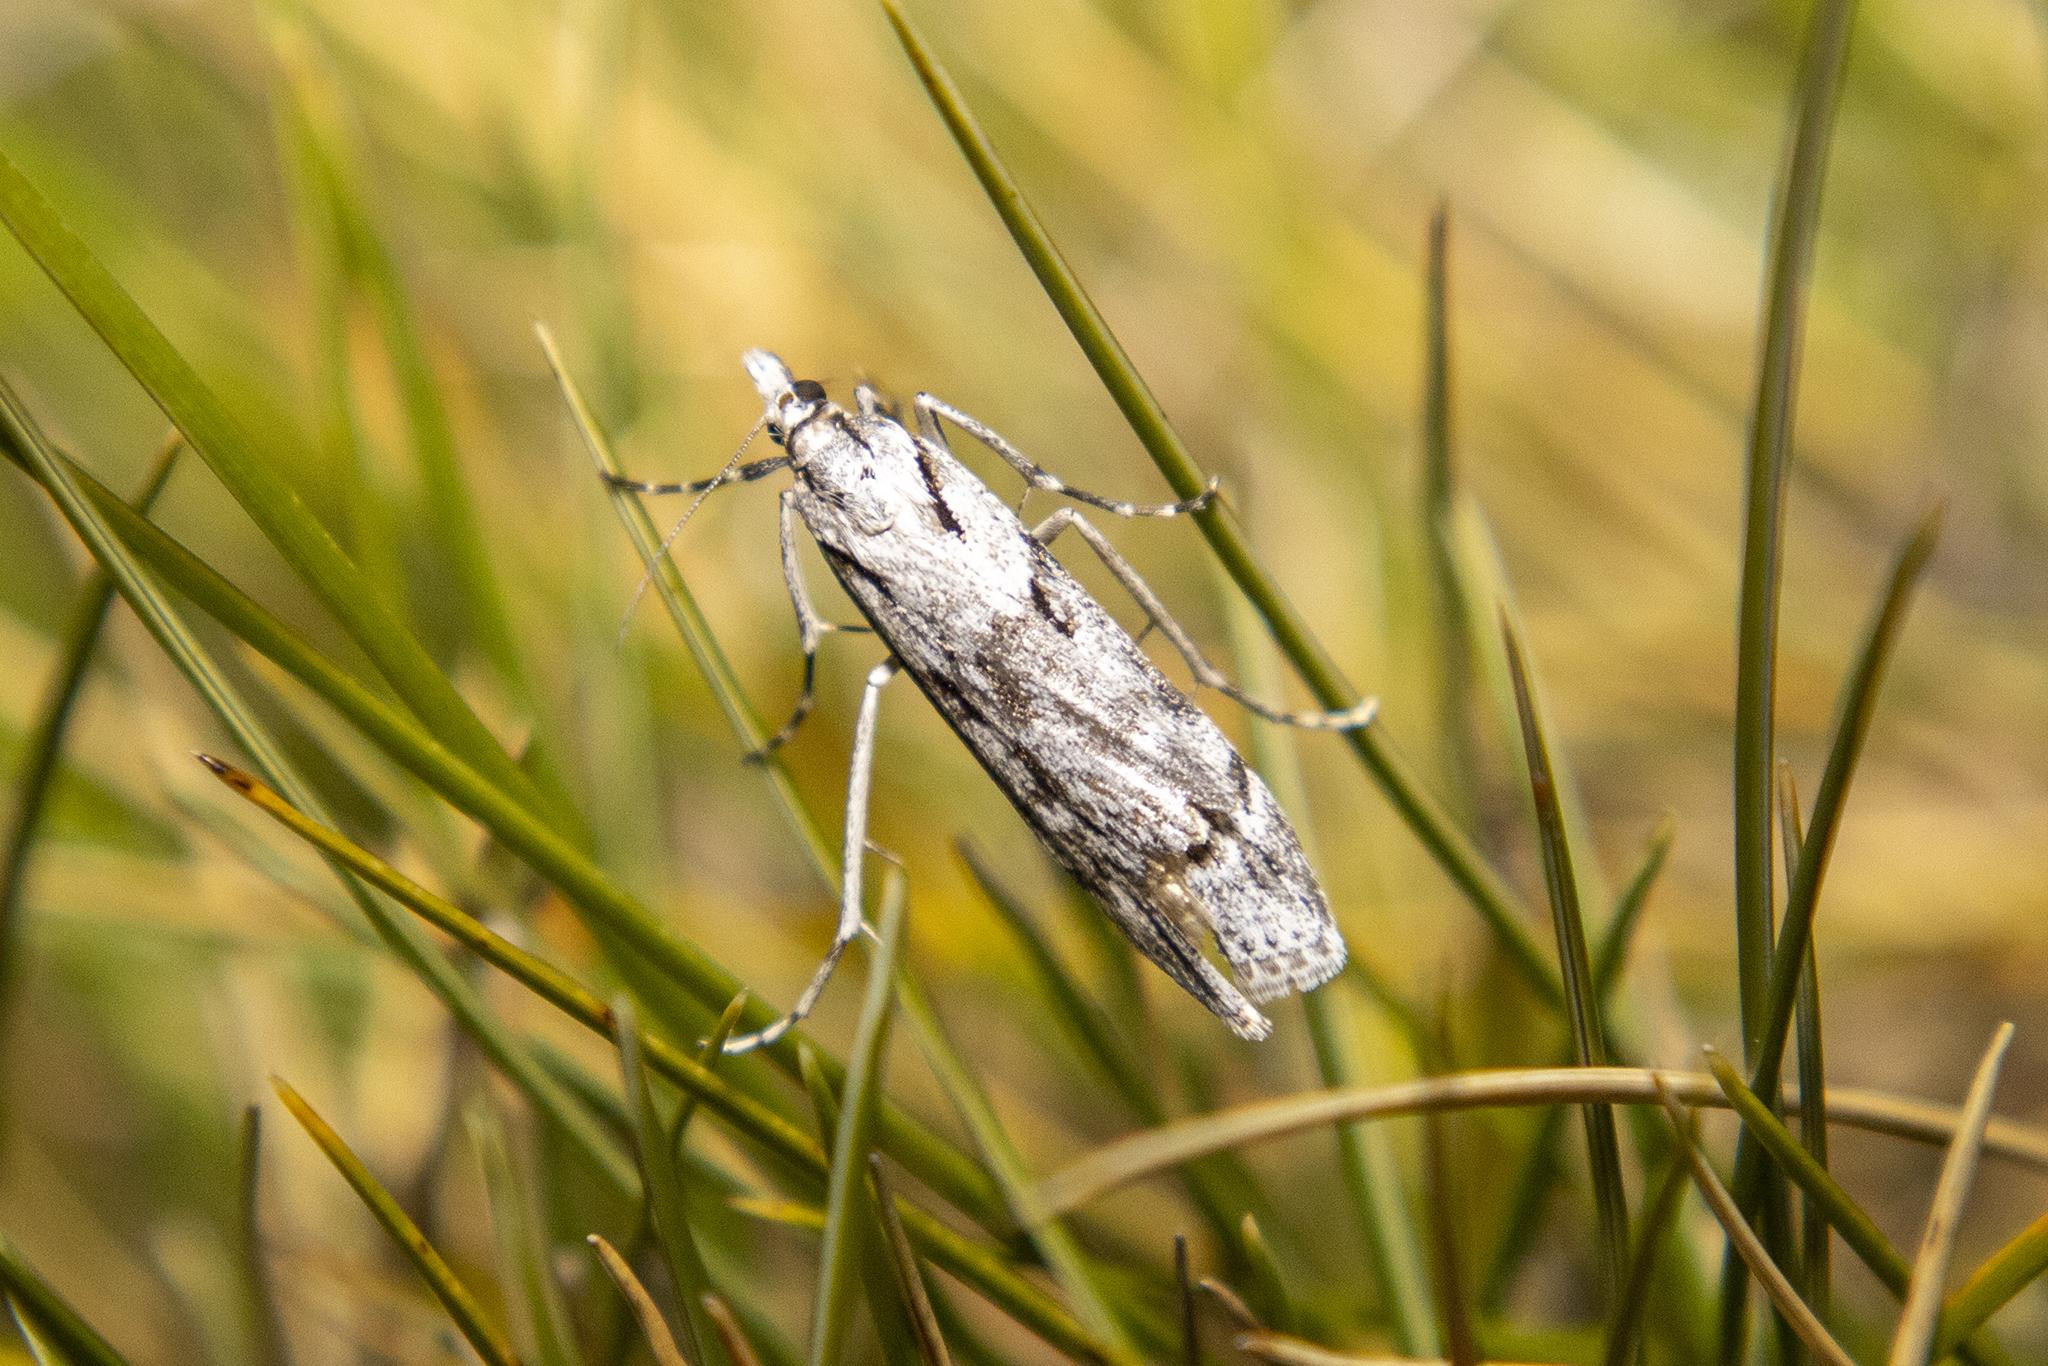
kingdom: Animalia
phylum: Arthropoda
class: Insecta
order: Lepidoptera
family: Crambidae
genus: Scoparia
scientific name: Scoparia halopis
